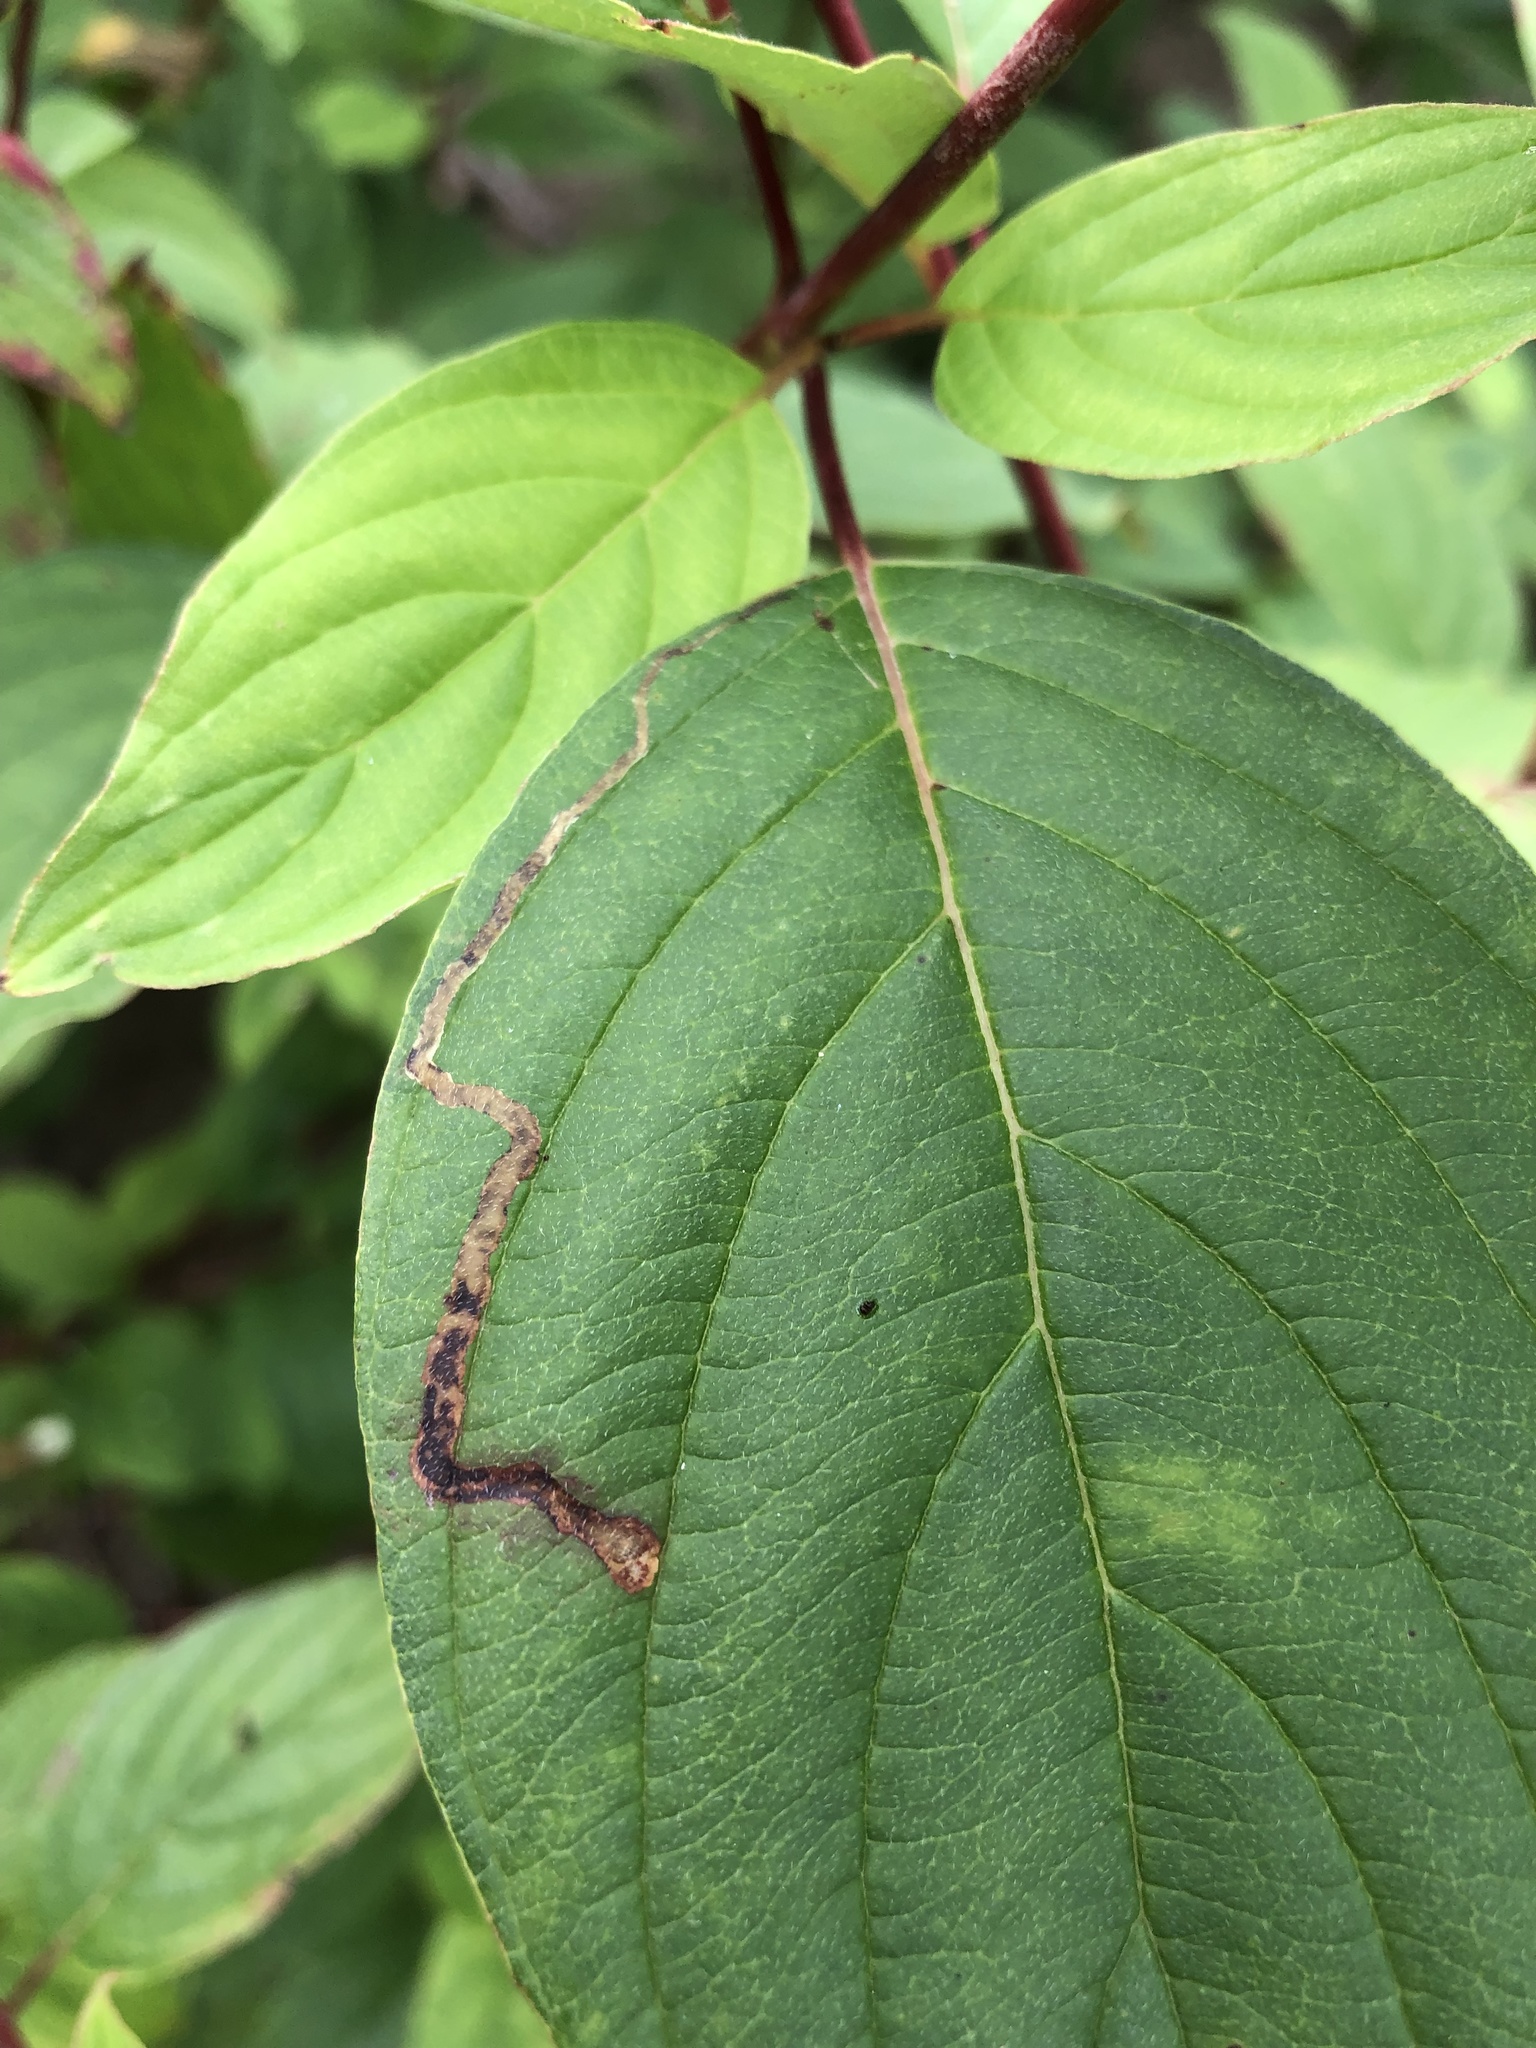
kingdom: Animalia
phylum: Arthropoda
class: Insecta
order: Diptera
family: Agromyzidae
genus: Phytomyza
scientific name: Phytomyza agromyzina
